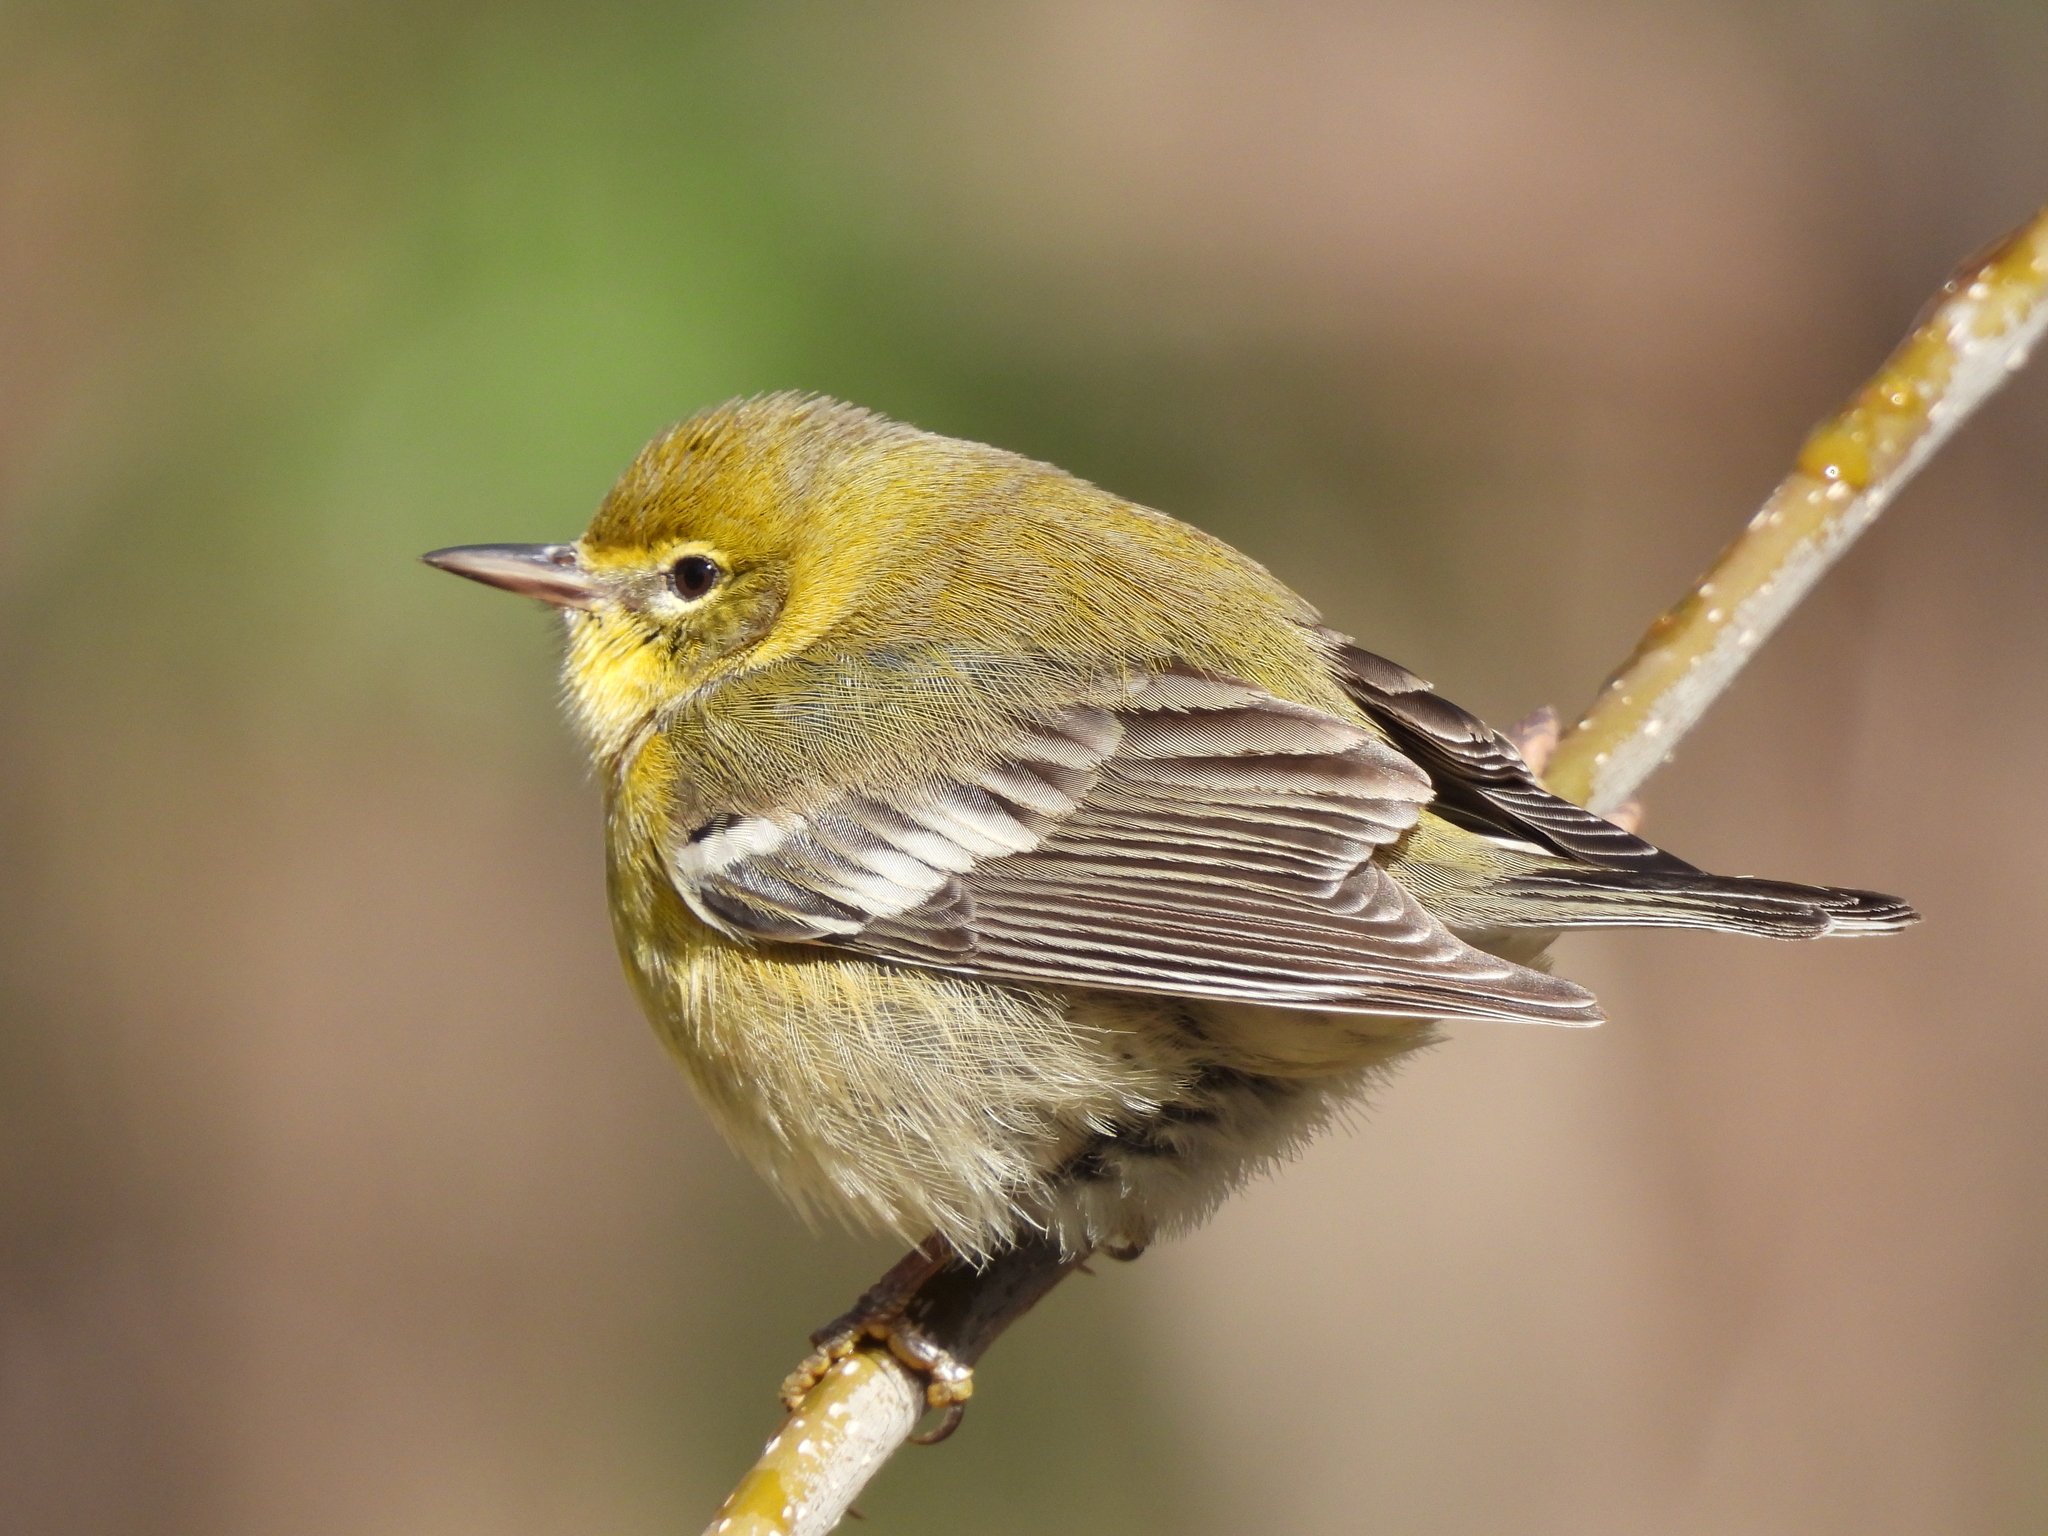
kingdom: Animalia
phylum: Chordata
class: Aves
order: Passeriformes
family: Parulidae
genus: Setophaga
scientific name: Setophaga pinus
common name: Pine warbler
